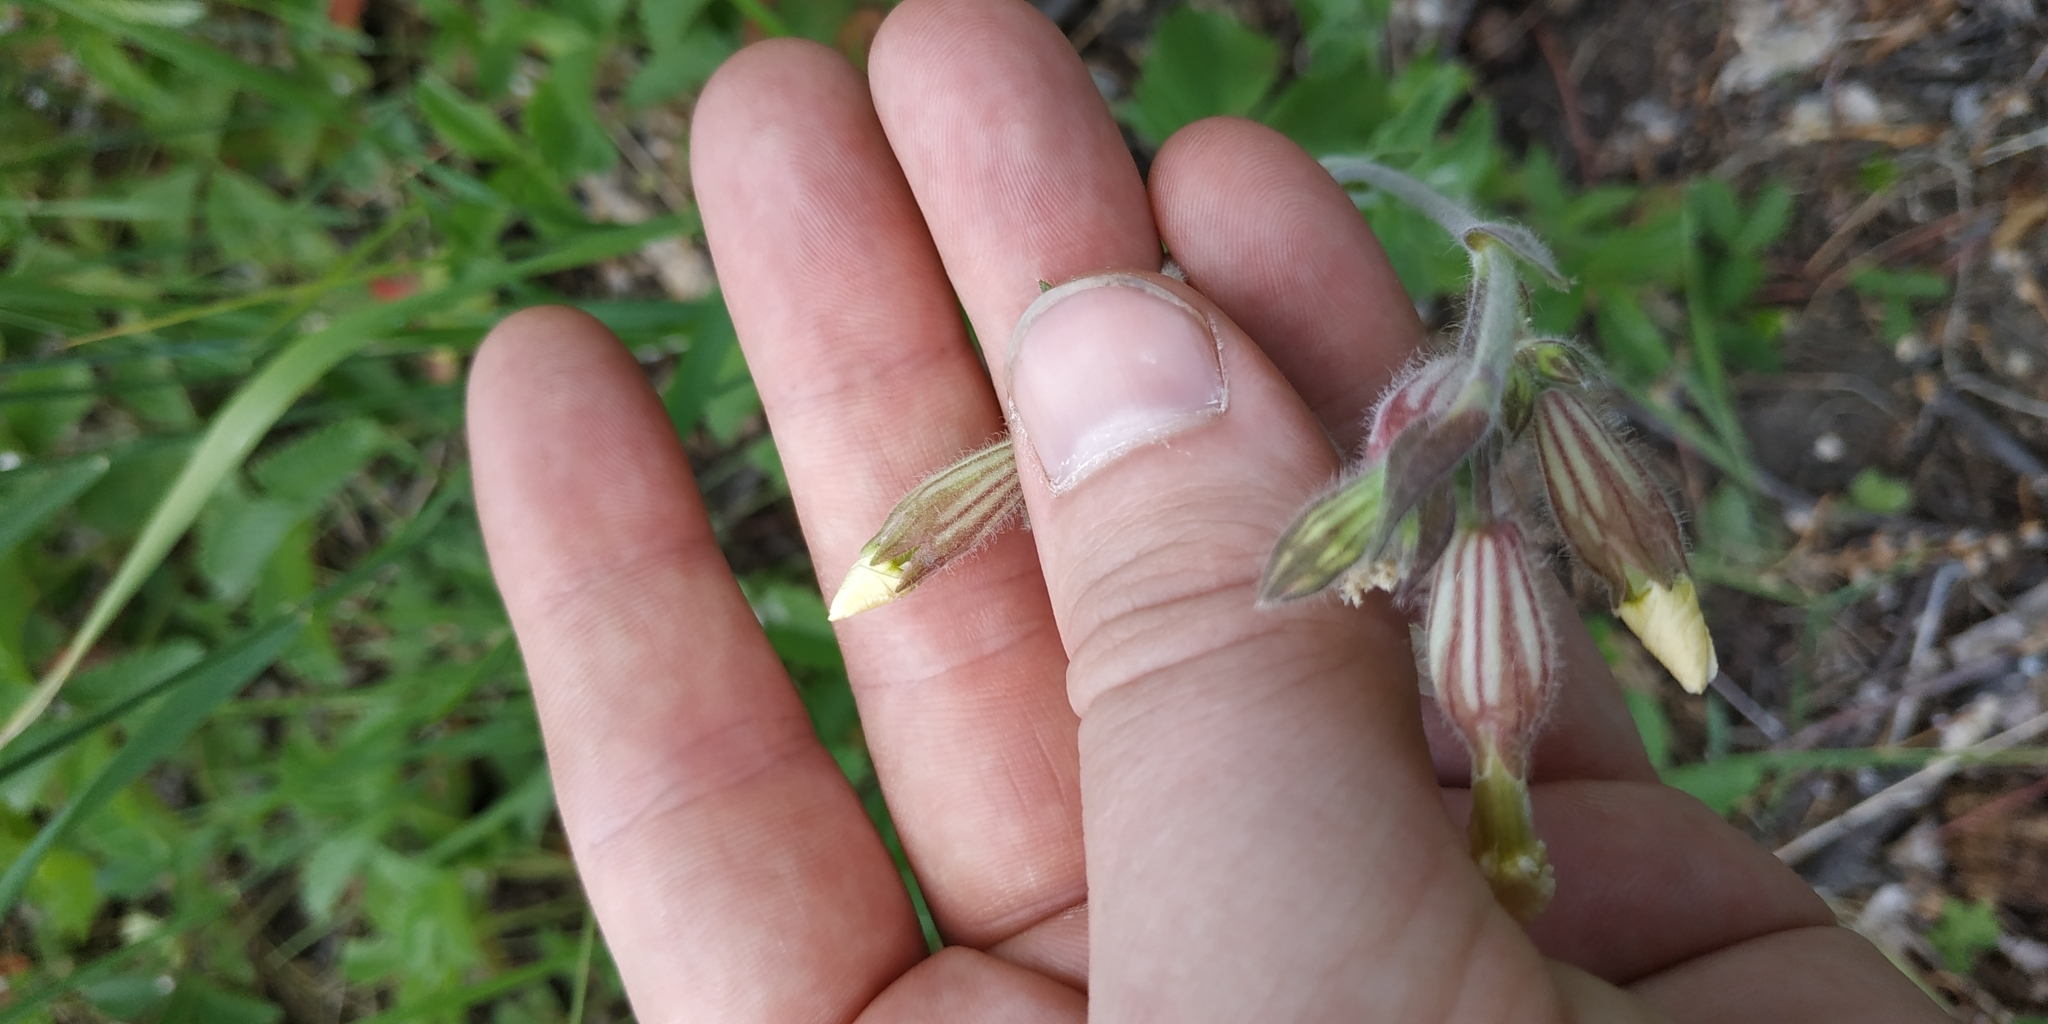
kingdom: Plantae
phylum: Tracheophyta
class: Magnoliopsida
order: Caryophyllales
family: Caryophyllaceae
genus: Silene
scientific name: Silene latifolia
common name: White campion
